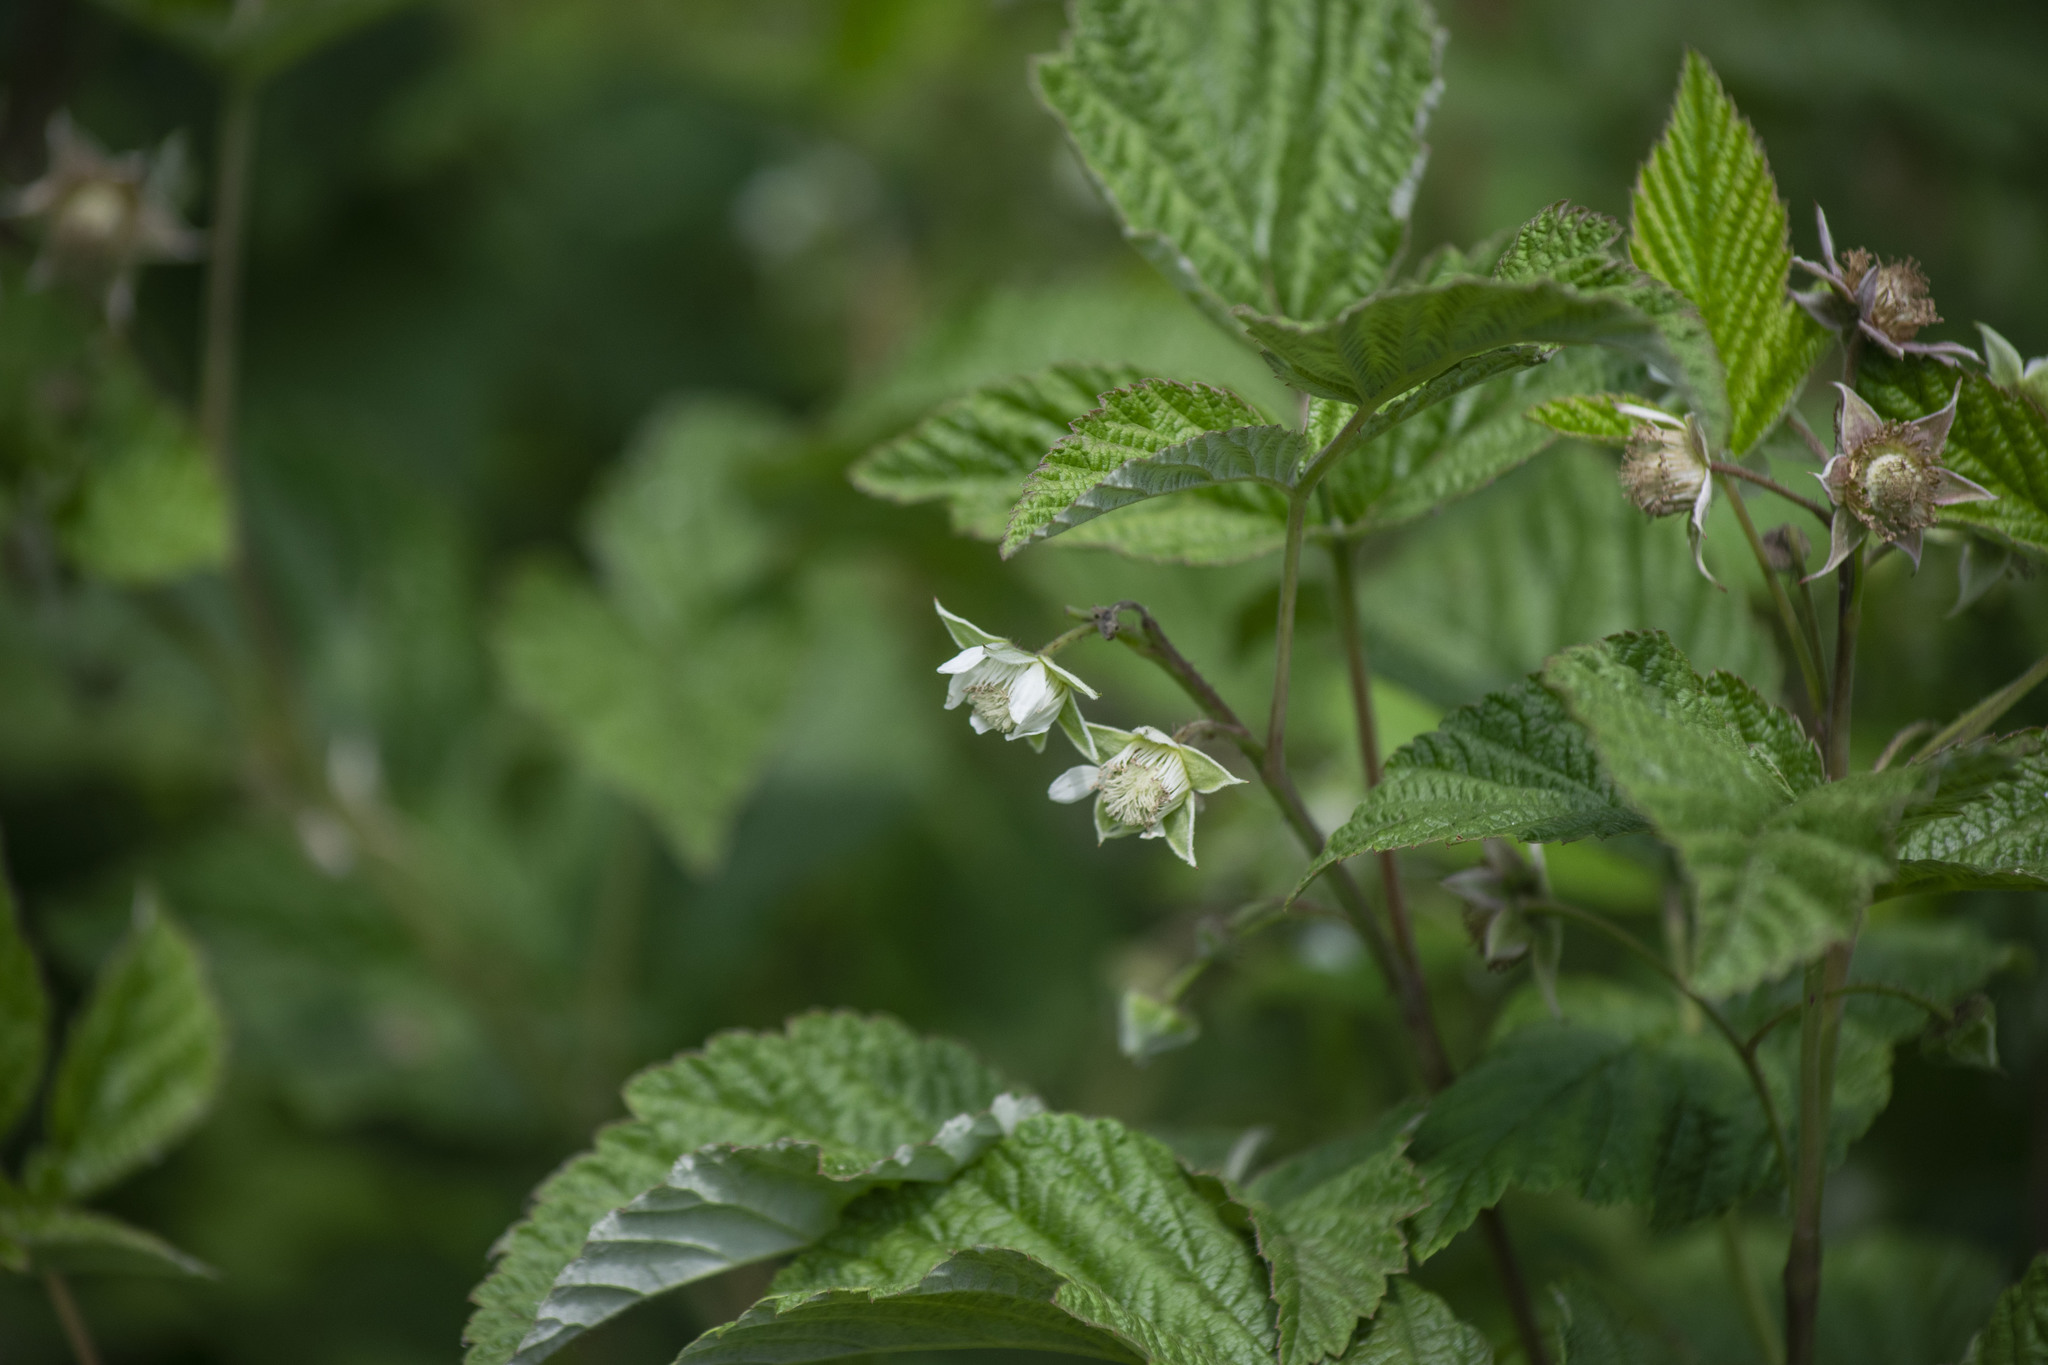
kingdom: Plantae
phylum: Tracheophyta
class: Magnoliopsida
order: Rosales
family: Rosaceae
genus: Rubus
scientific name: Rubus idaeus
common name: Raspberry
